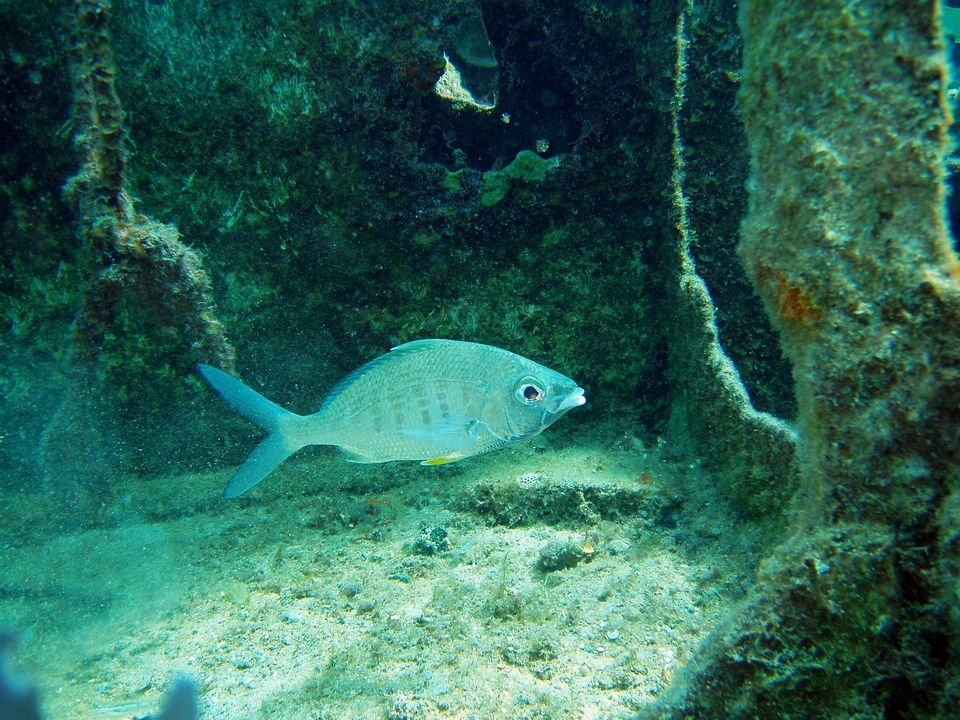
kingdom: Animalia
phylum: Chordata
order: Perciformes
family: Gerreidae
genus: Gerres
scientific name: Gerres cinereus
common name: Hedow
